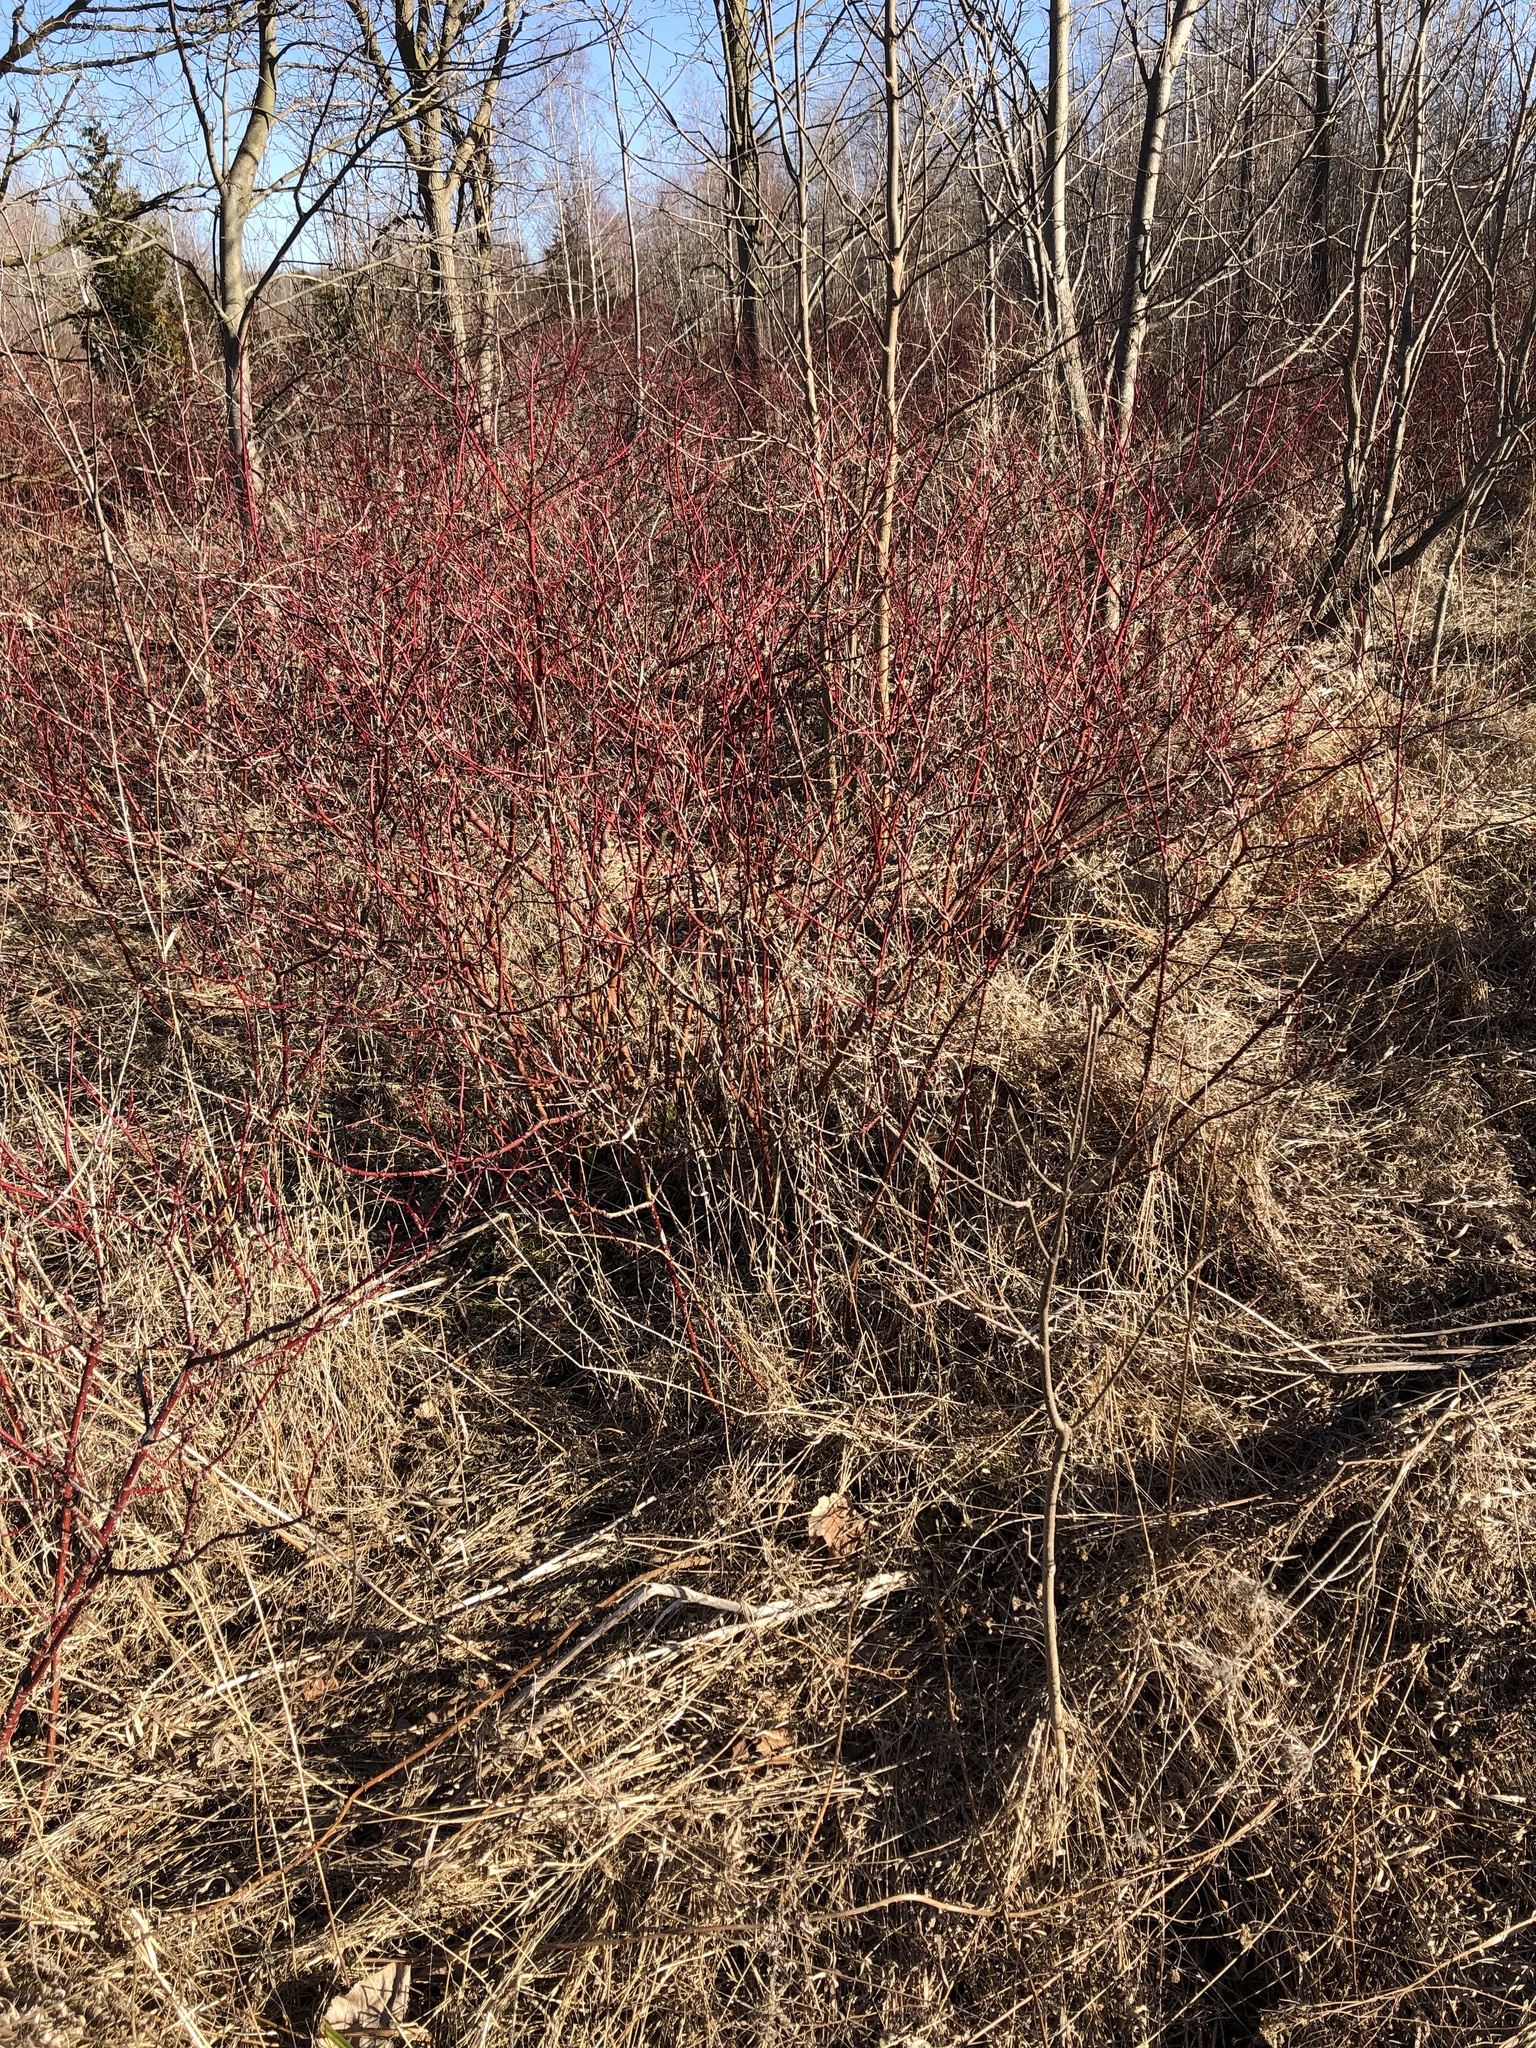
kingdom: Plantae
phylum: Tracheophyta
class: Magnoliopsida
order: Cornales
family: Cornaceae
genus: Cornus
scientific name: Cornus sericea
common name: Red-osier dogwood
